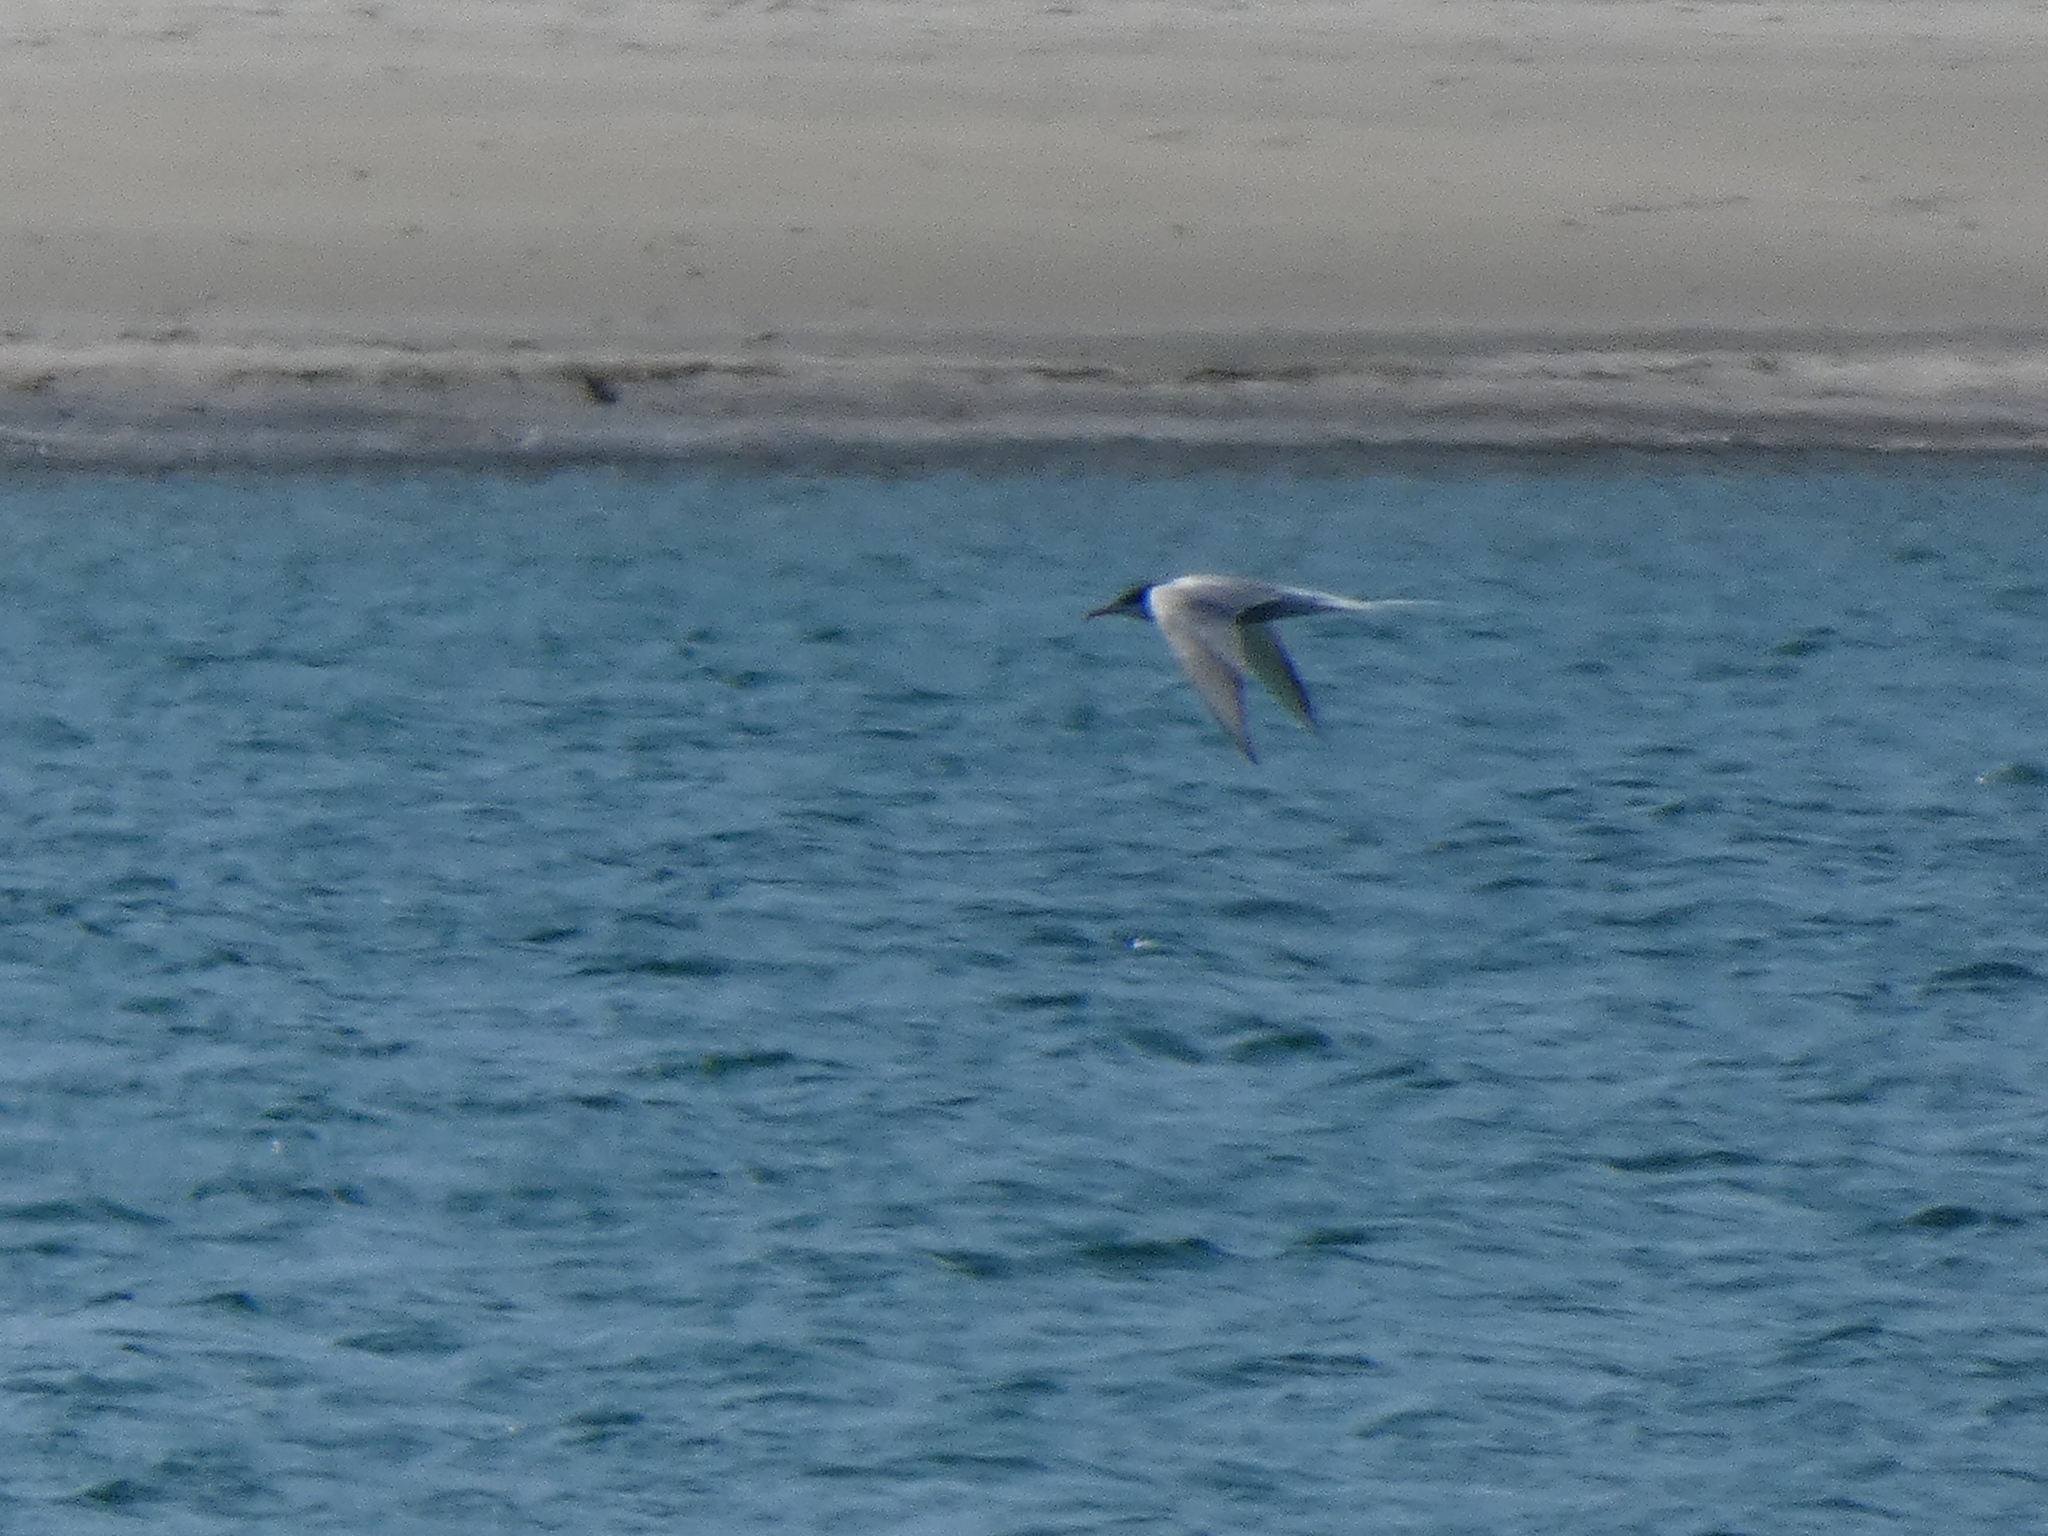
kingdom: Animalia
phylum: Chordata
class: Aves
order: Charadriiformes
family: Laridae
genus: Sterna
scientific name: Sterna hirundo
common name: Common tern
